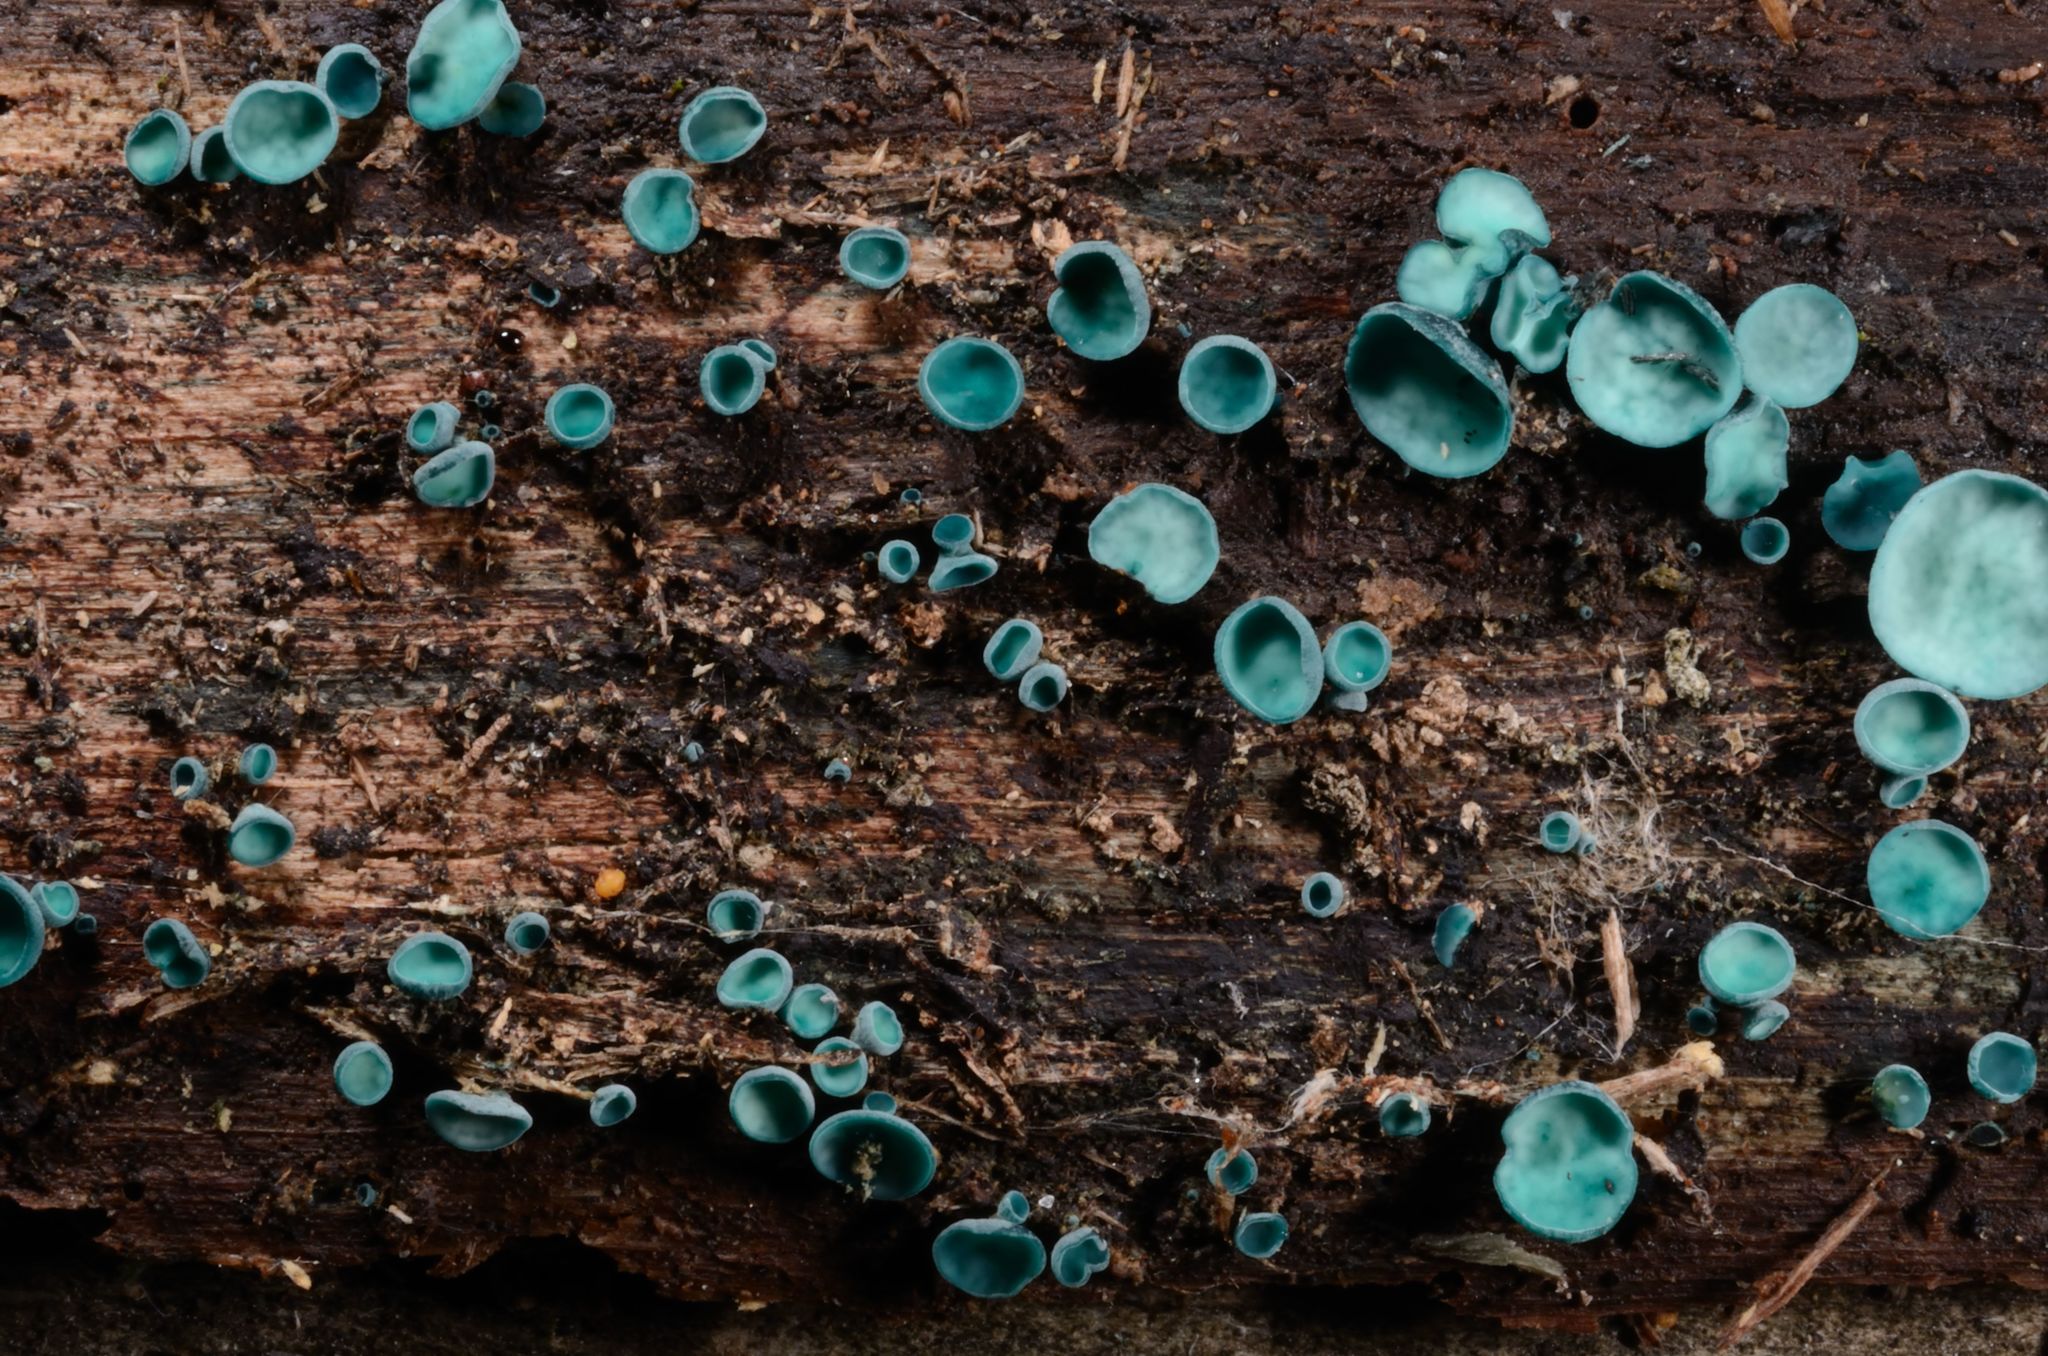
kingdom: Fungi
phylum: Ascomycota
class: Leotiomycetes
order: Helotiales
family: Chlorociboriaceae
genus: Chlorociboria
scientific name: Chlorociboria aeruginascens
